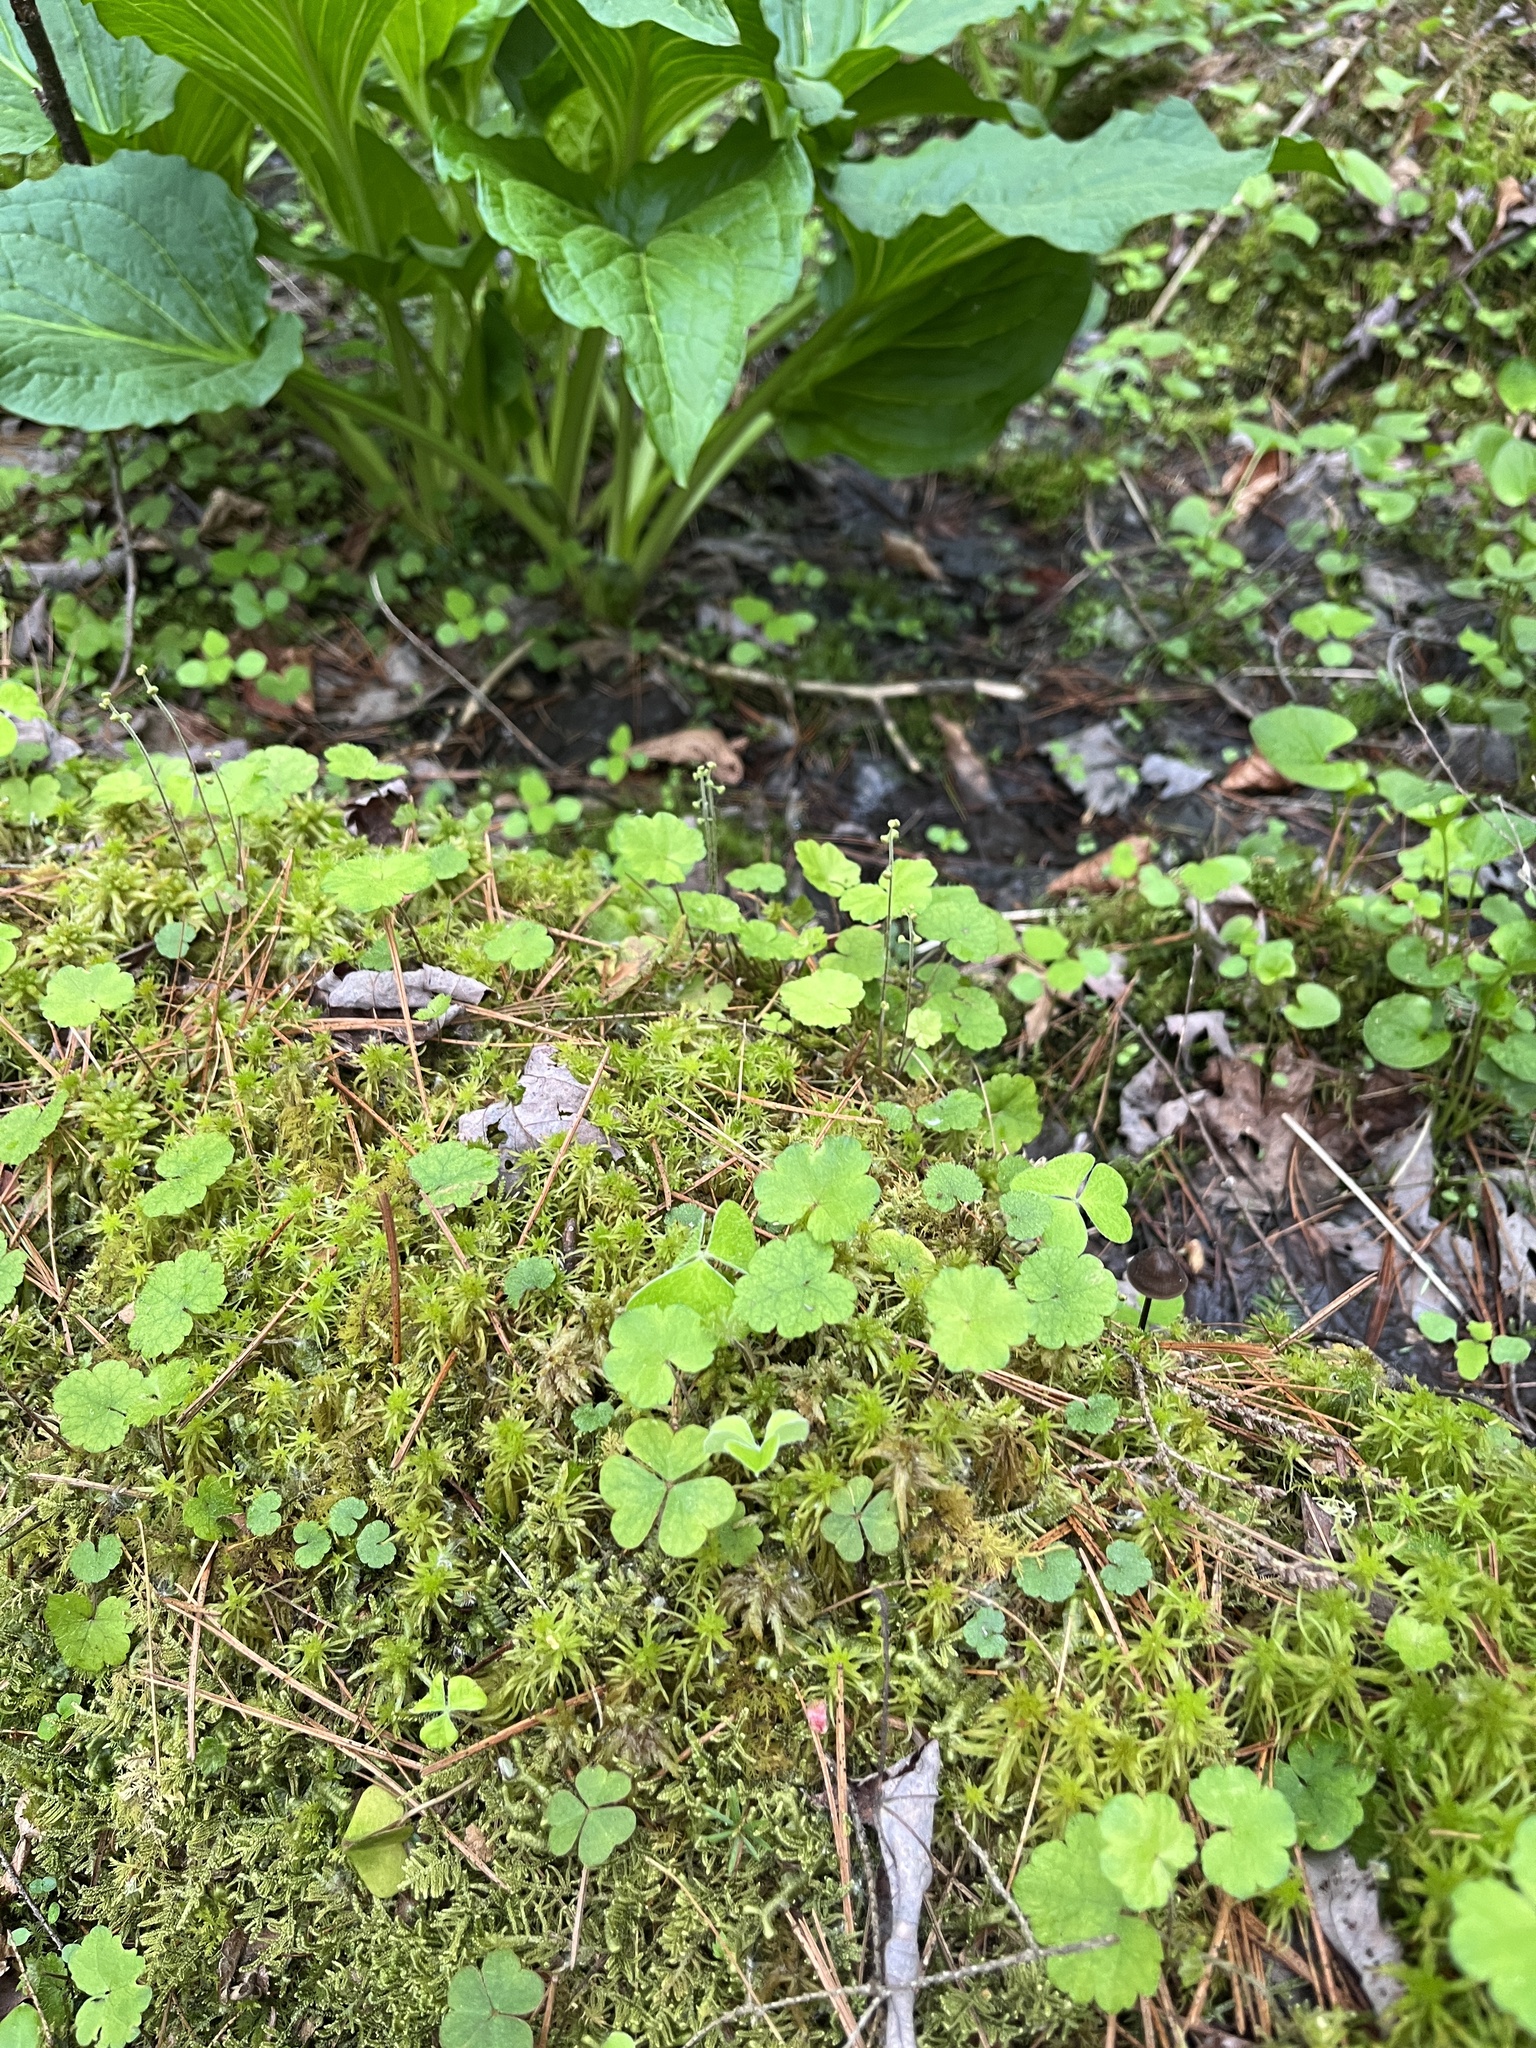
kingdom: Plantae
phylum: Tracheophyta
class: Magnoliopsida
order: Saxifragales
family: Saxifragaceae
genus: Mitella
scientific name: Mitella nuda
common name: Bare-stemmed bishop's-cap
